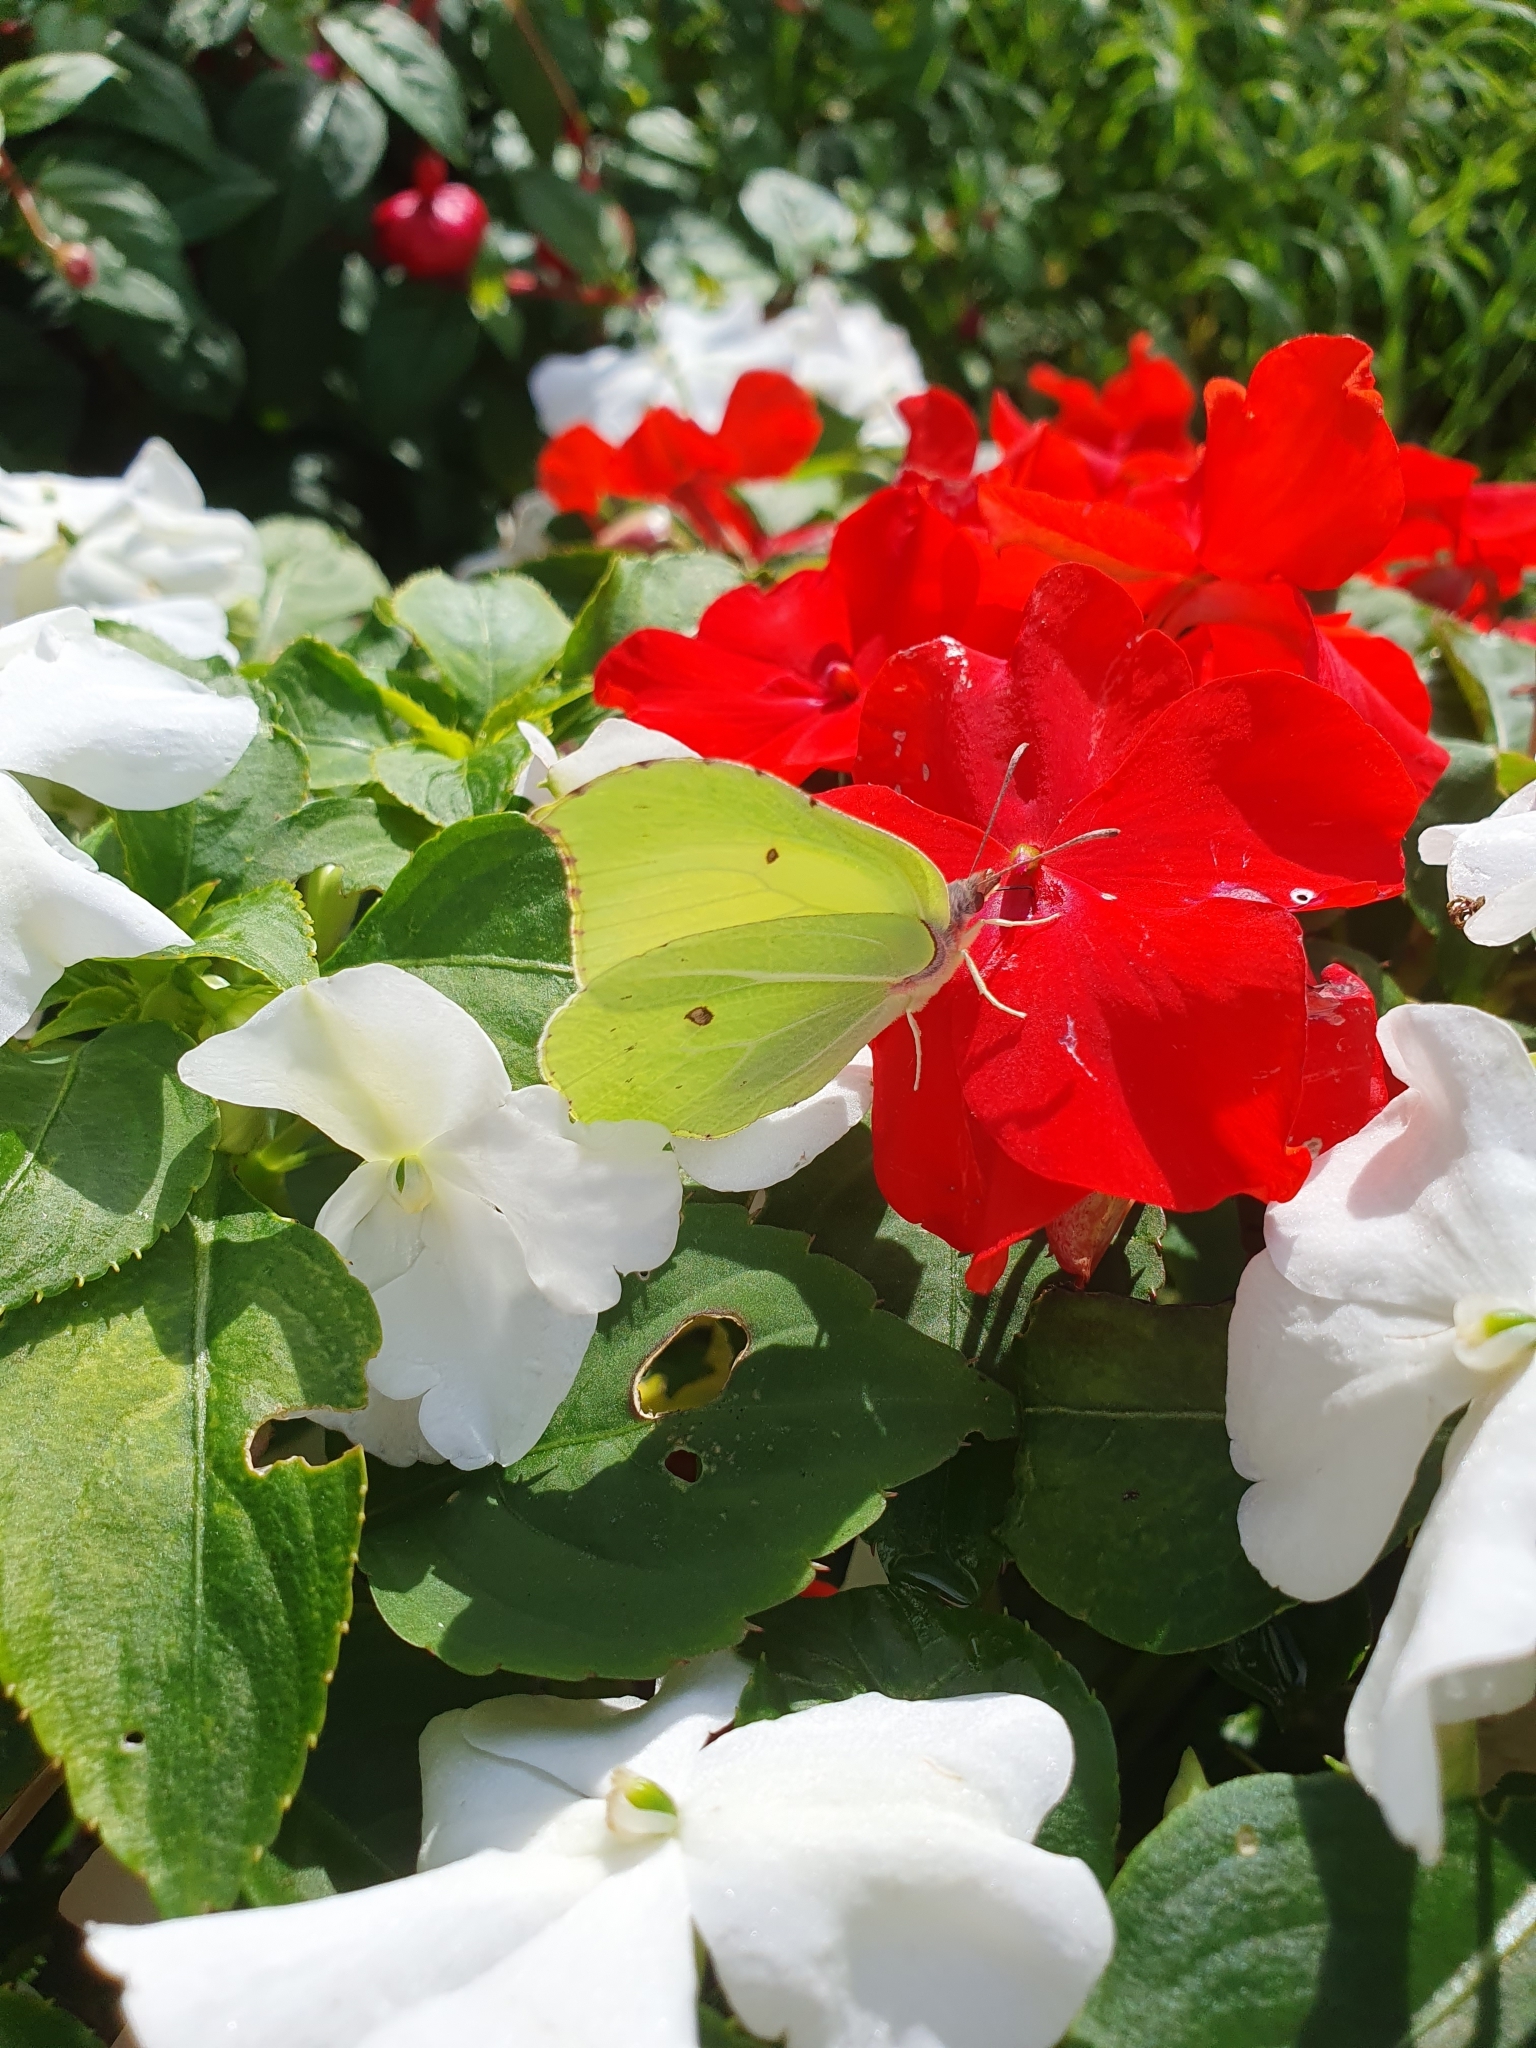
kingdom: Animalia
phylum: Arthropoda
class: Insecta
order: Lepidoptera
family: Pieridae
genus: Gonepteryx
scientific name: Gonepteryx rhamni
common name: Brimstone
